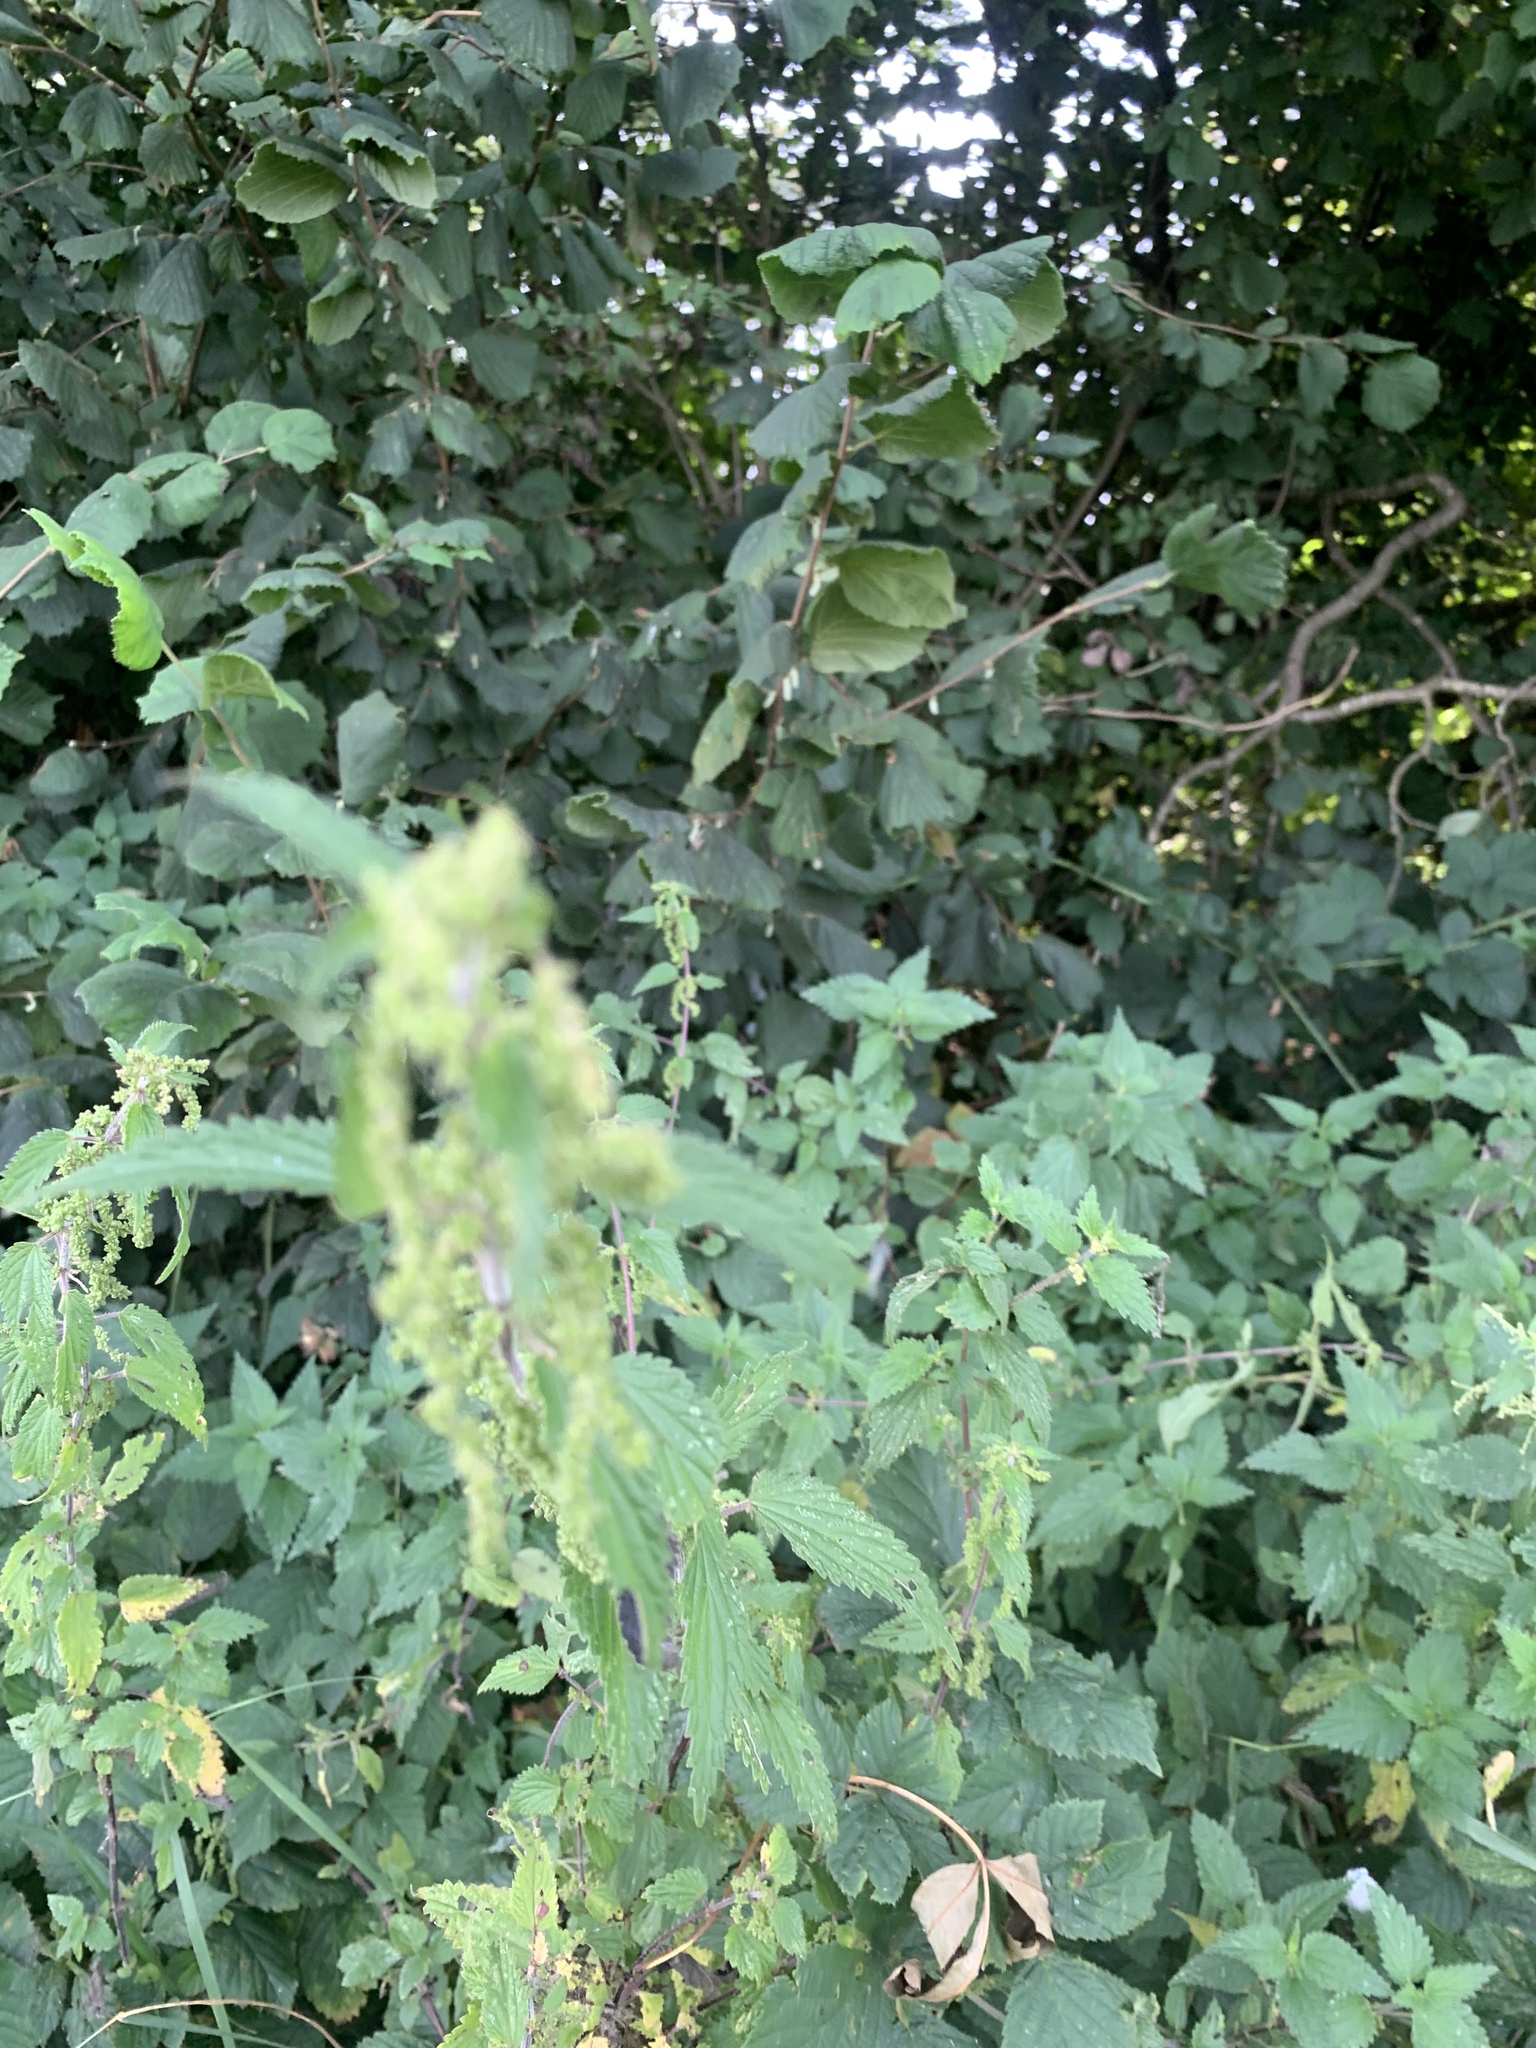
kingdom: Plantae
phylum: Tracheophyta
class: Magnoliopsida
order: Rosales
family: Urticaceae
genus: Urtica
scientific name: Urtica dioica
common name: Common nettle
